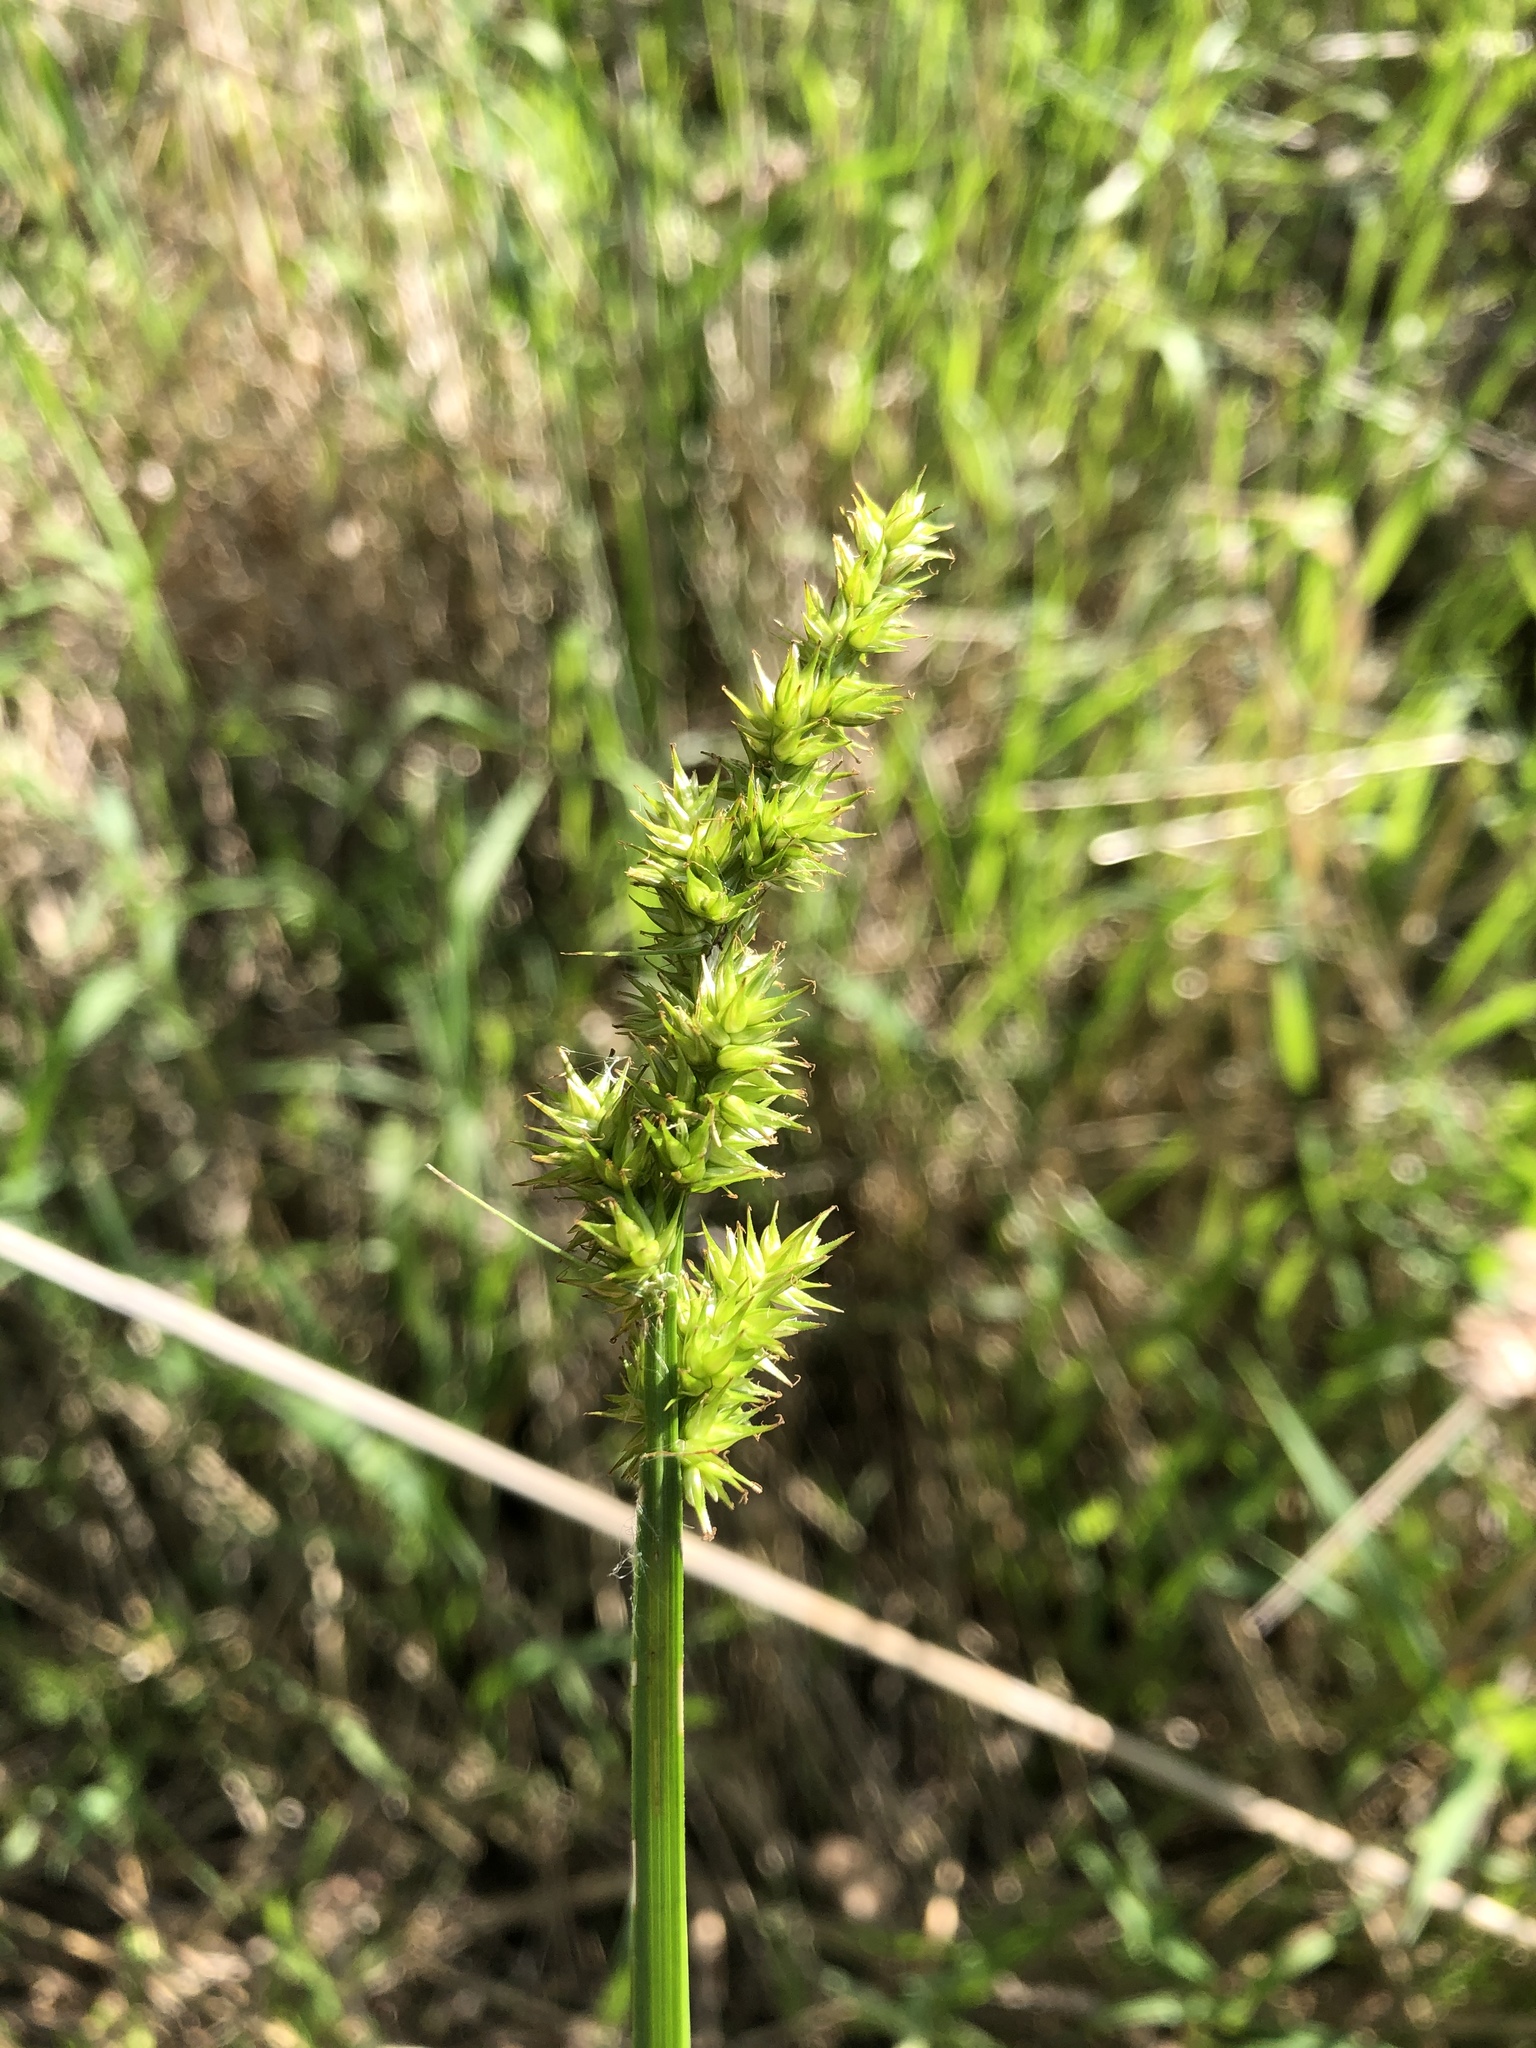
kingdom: Plantae
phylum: Tracheophyta
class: Liliopsida
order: Poales
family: Cyperaceae
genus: Carex
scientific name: Carex stipata
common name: Awl-fruited sedge
